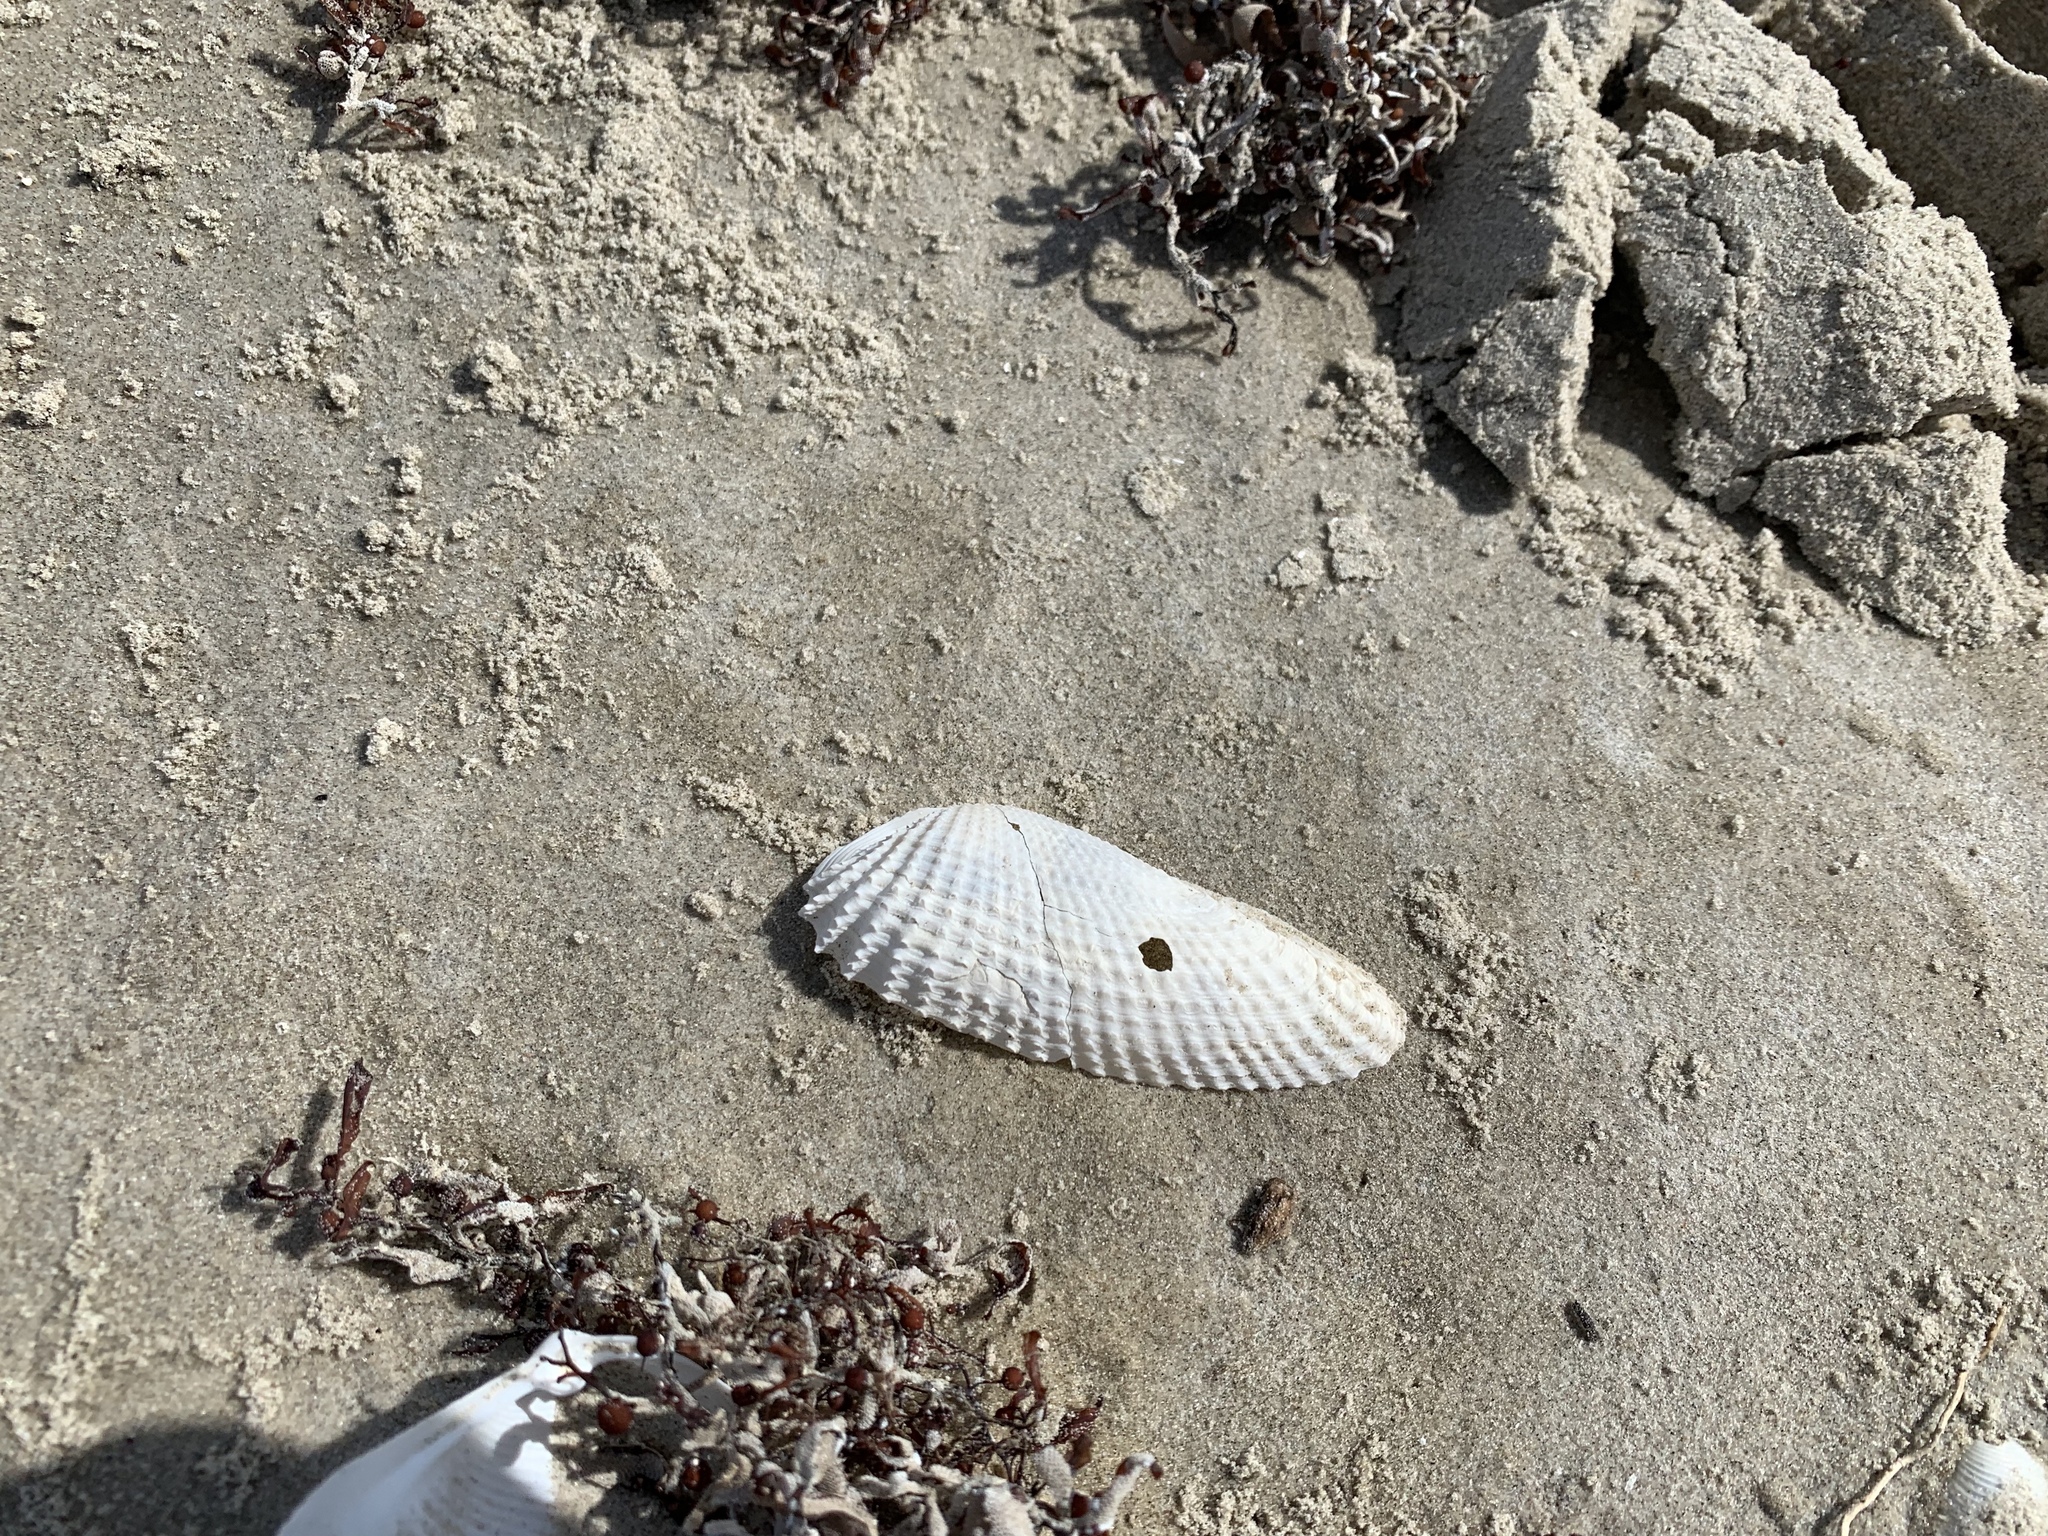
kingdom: Animalia
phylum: Mollusca
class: Bivalvia
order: Myida
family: Pholadidae
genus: Cyrtopleura
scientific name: Cyrtopleura costata
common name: Angel wing
